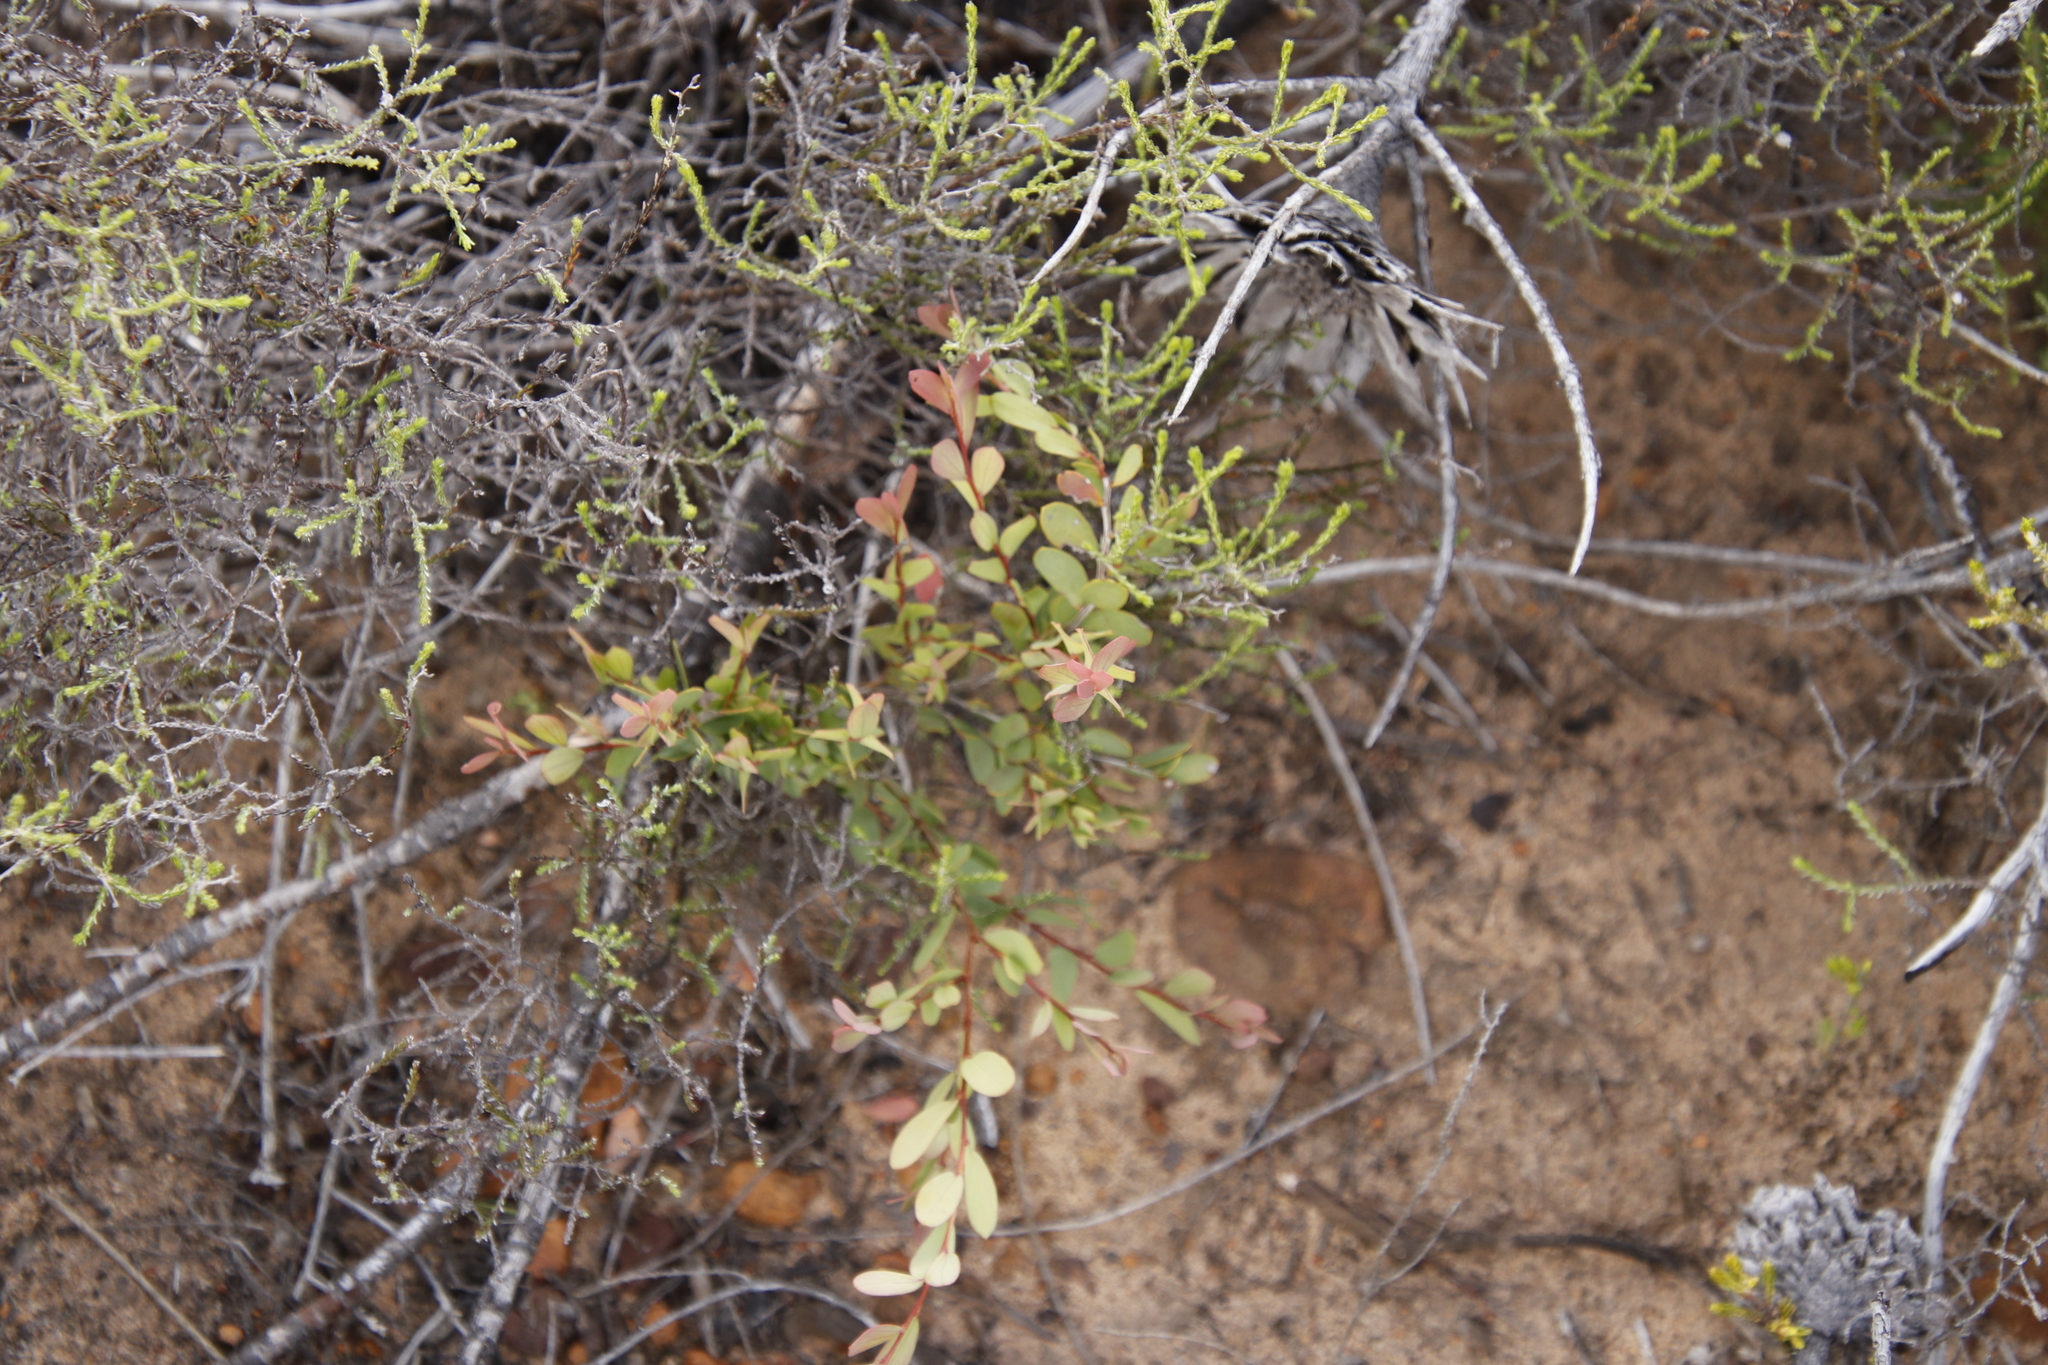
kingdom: Plantae
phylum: Tracheophyta
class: Magnoliopsida
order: Myrtales
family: Myrtaceae
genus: Leptospermum
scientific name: Leptospermum laevigatum
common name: Australian teatree
